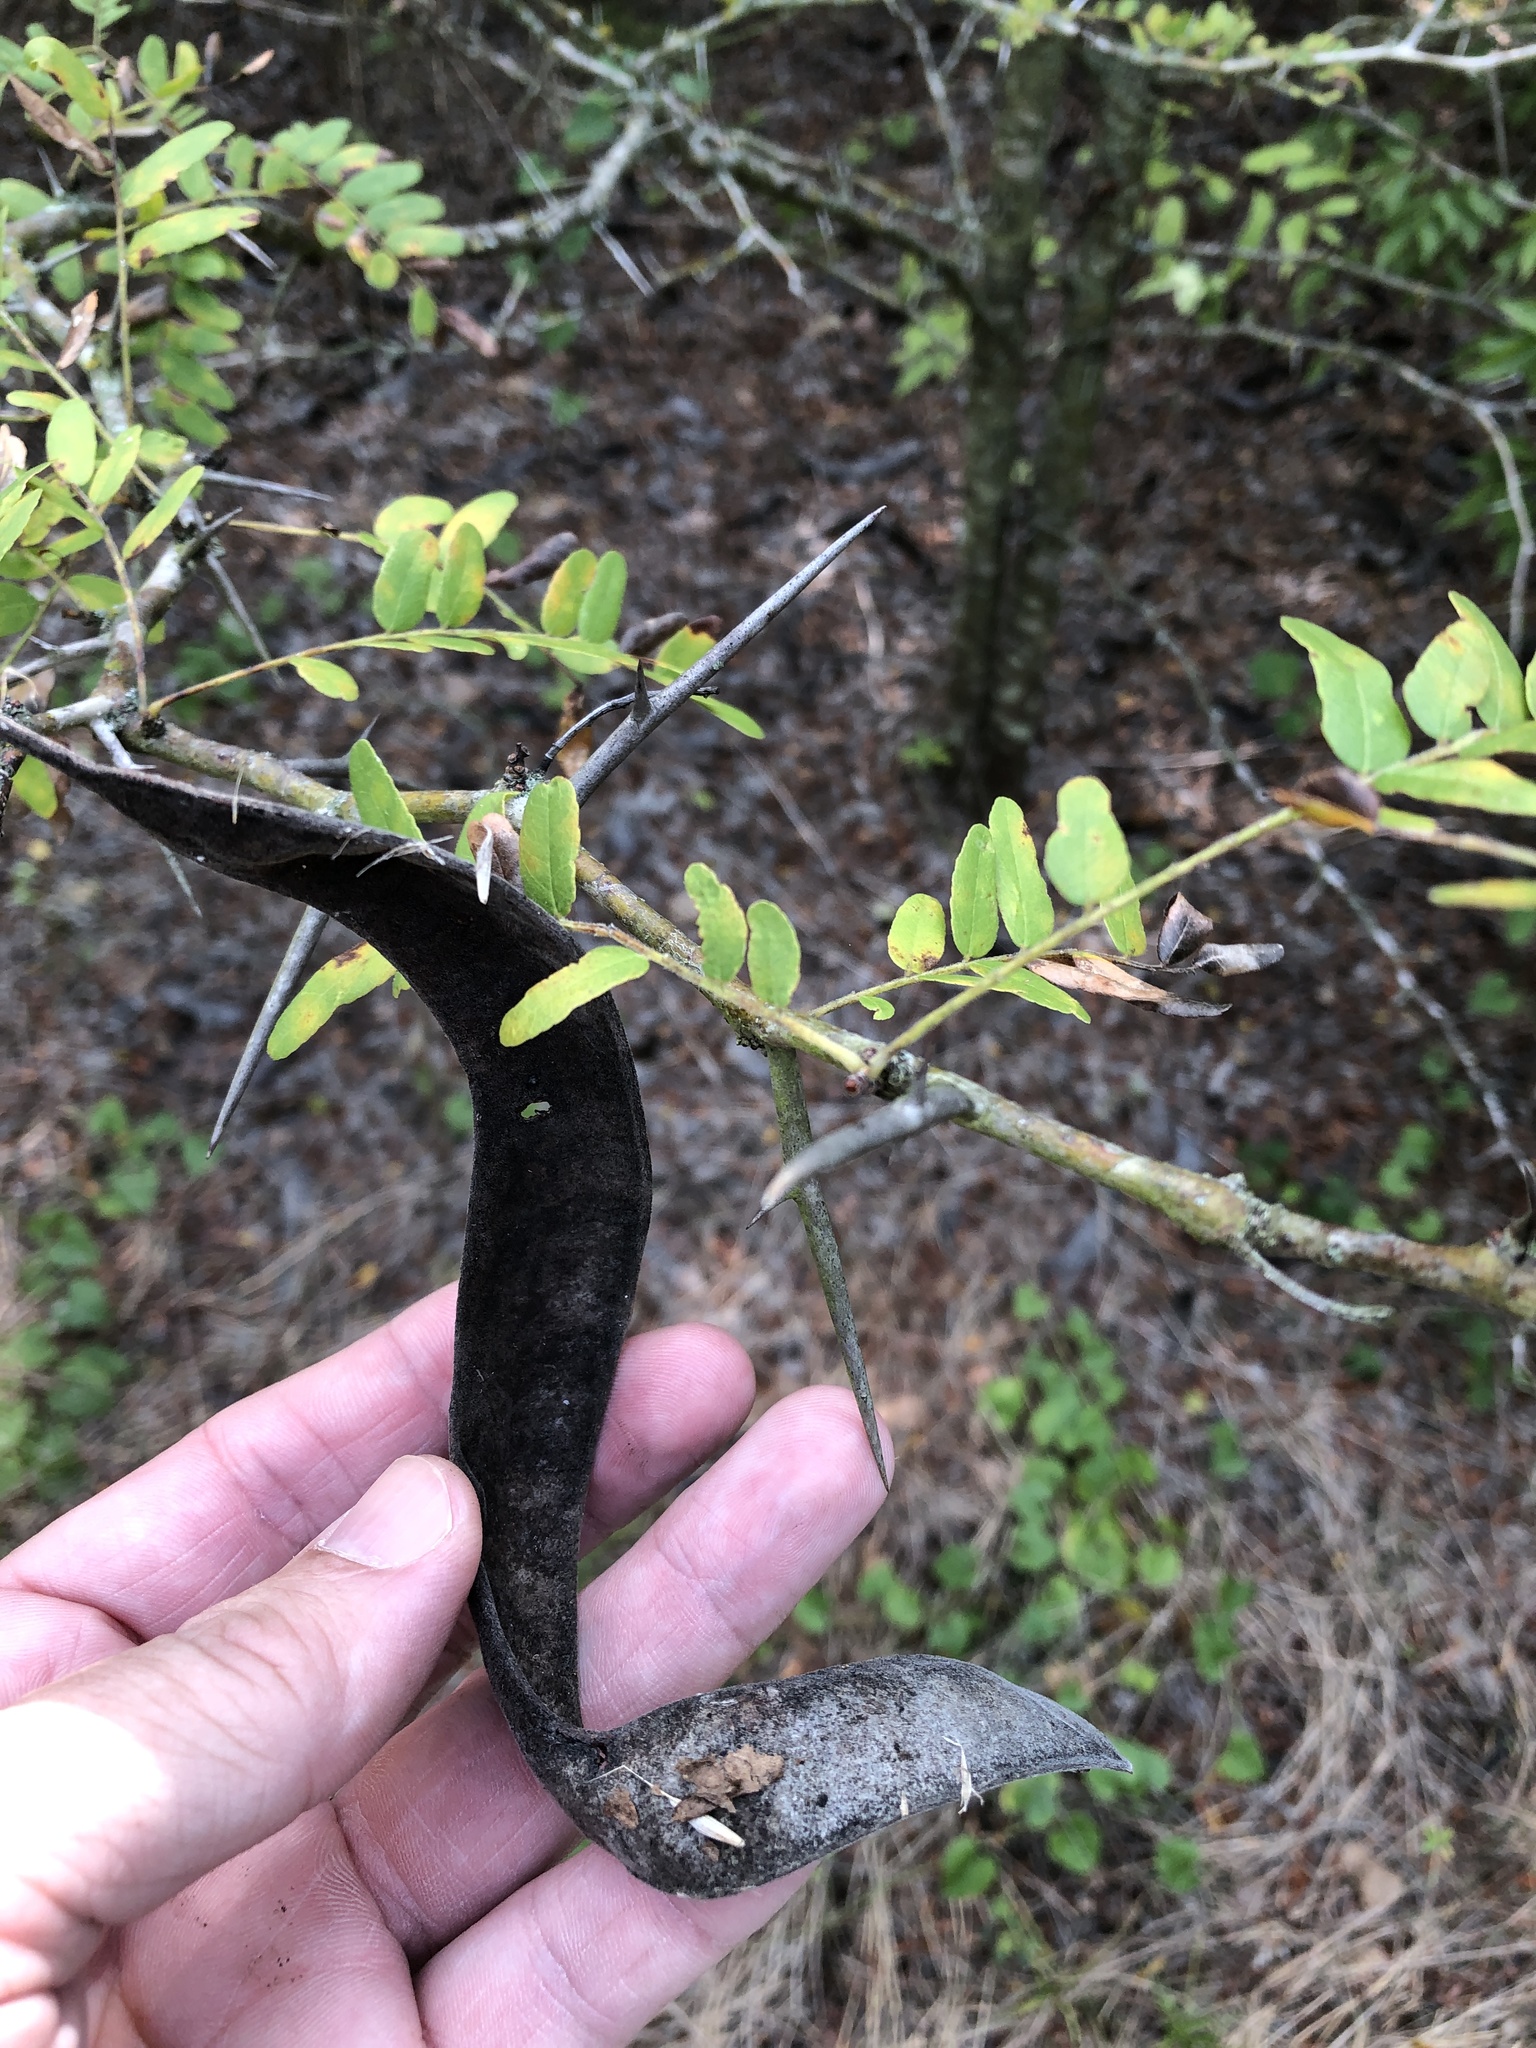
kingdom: Plantae
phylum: Tracheophyta
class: Magnoliopsida
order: Fabales
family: Fabaceae
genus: Gleditsia
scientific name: Gleditsia triacanthos
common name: Common honeylocust
